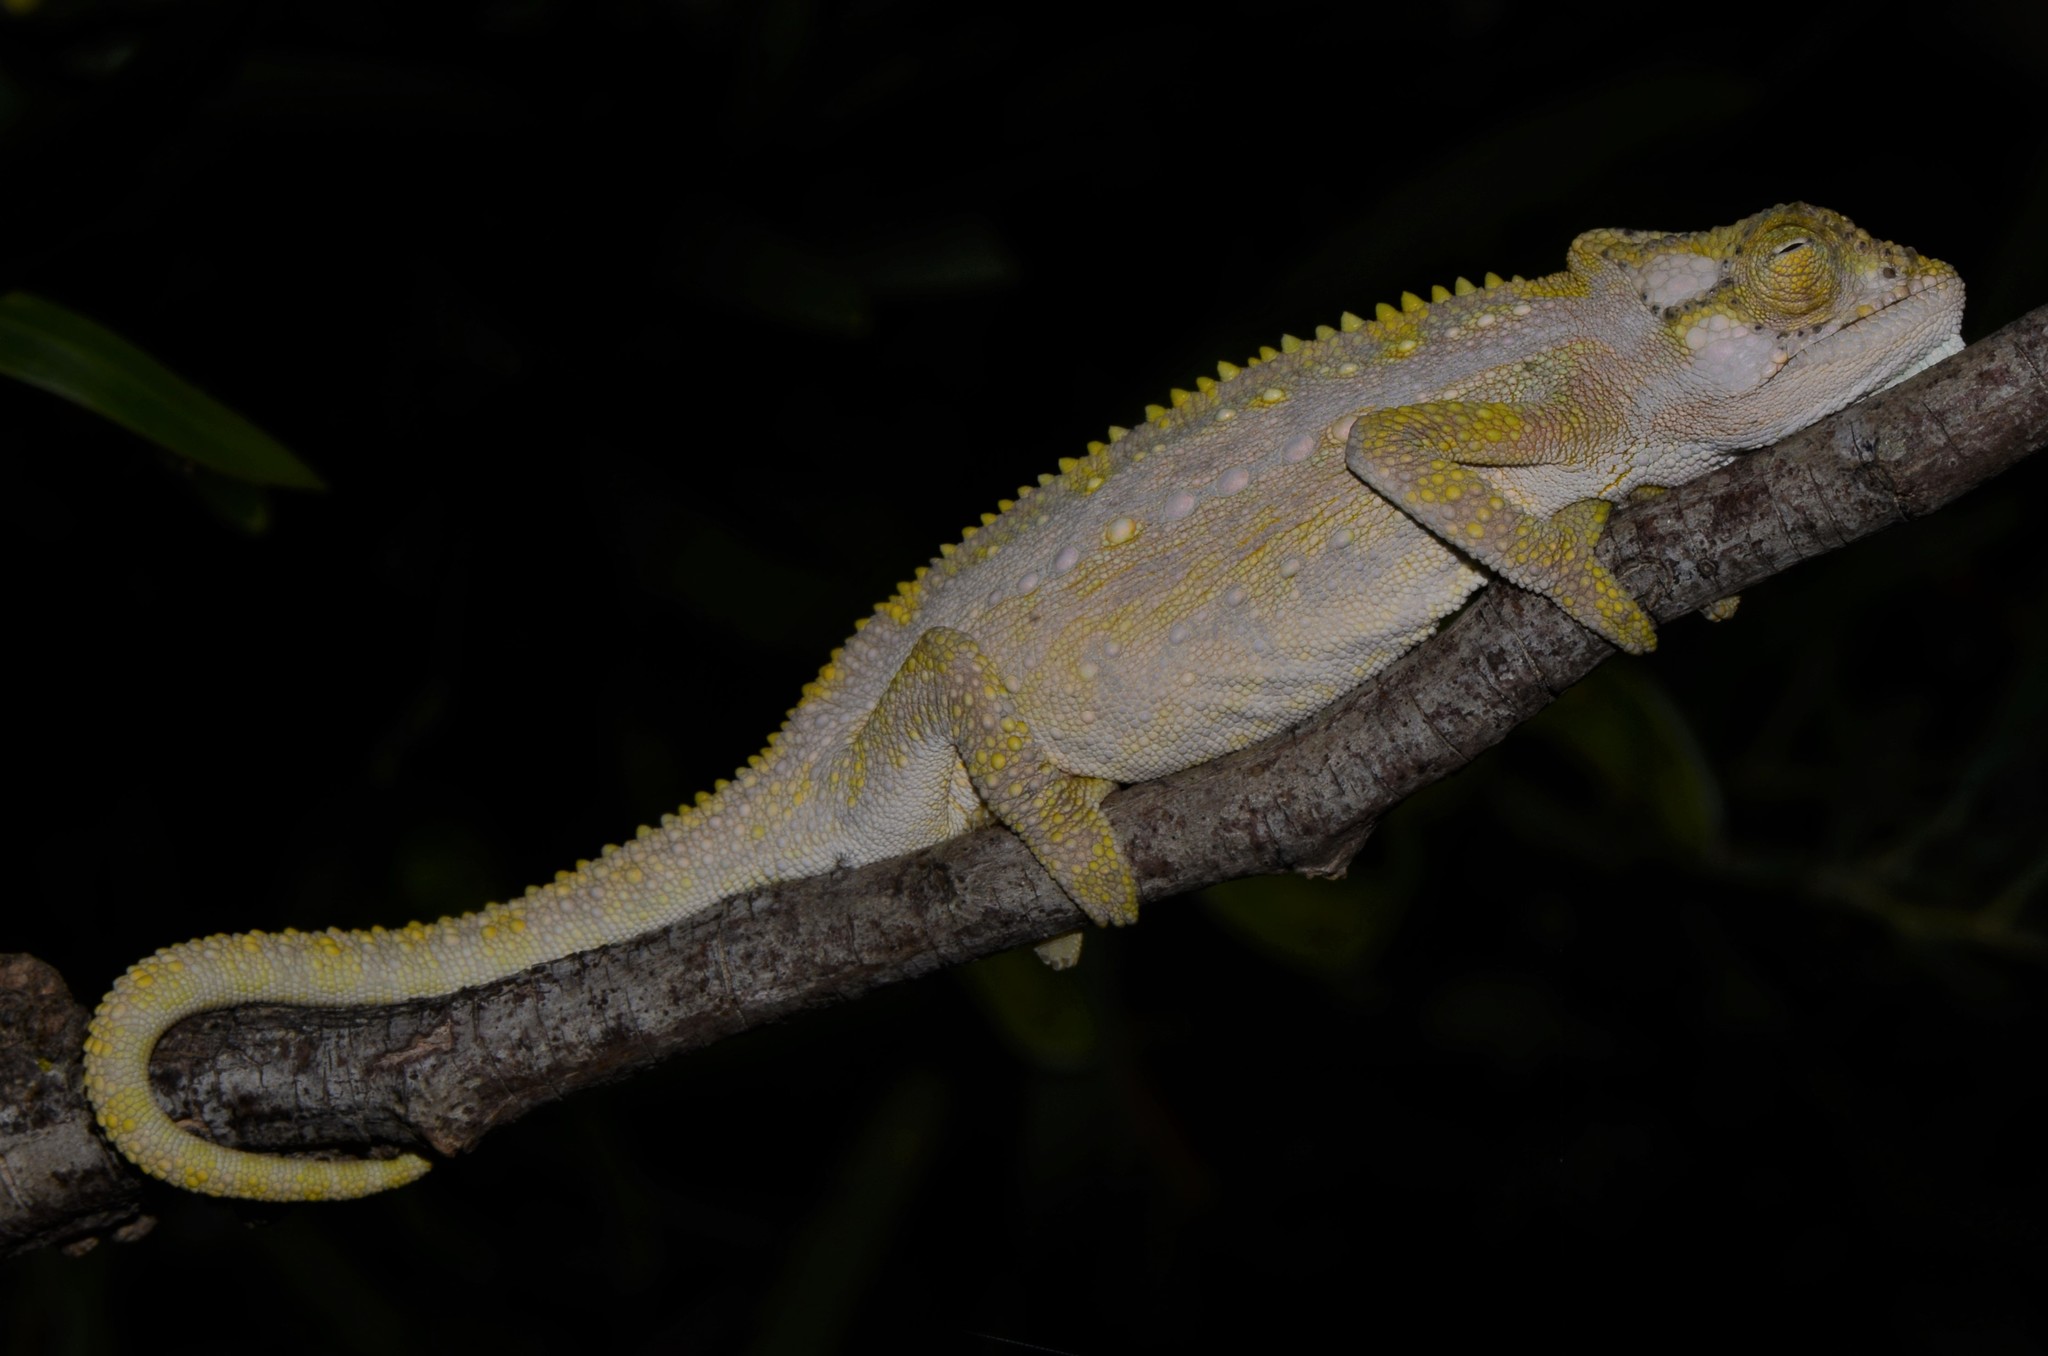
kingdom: Animalia
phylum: Chordata
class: Squamata
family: Chamaeleonidae
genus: Bradypodion
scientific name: Bradypodion pumilum
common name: Cape dwarf chameleon
